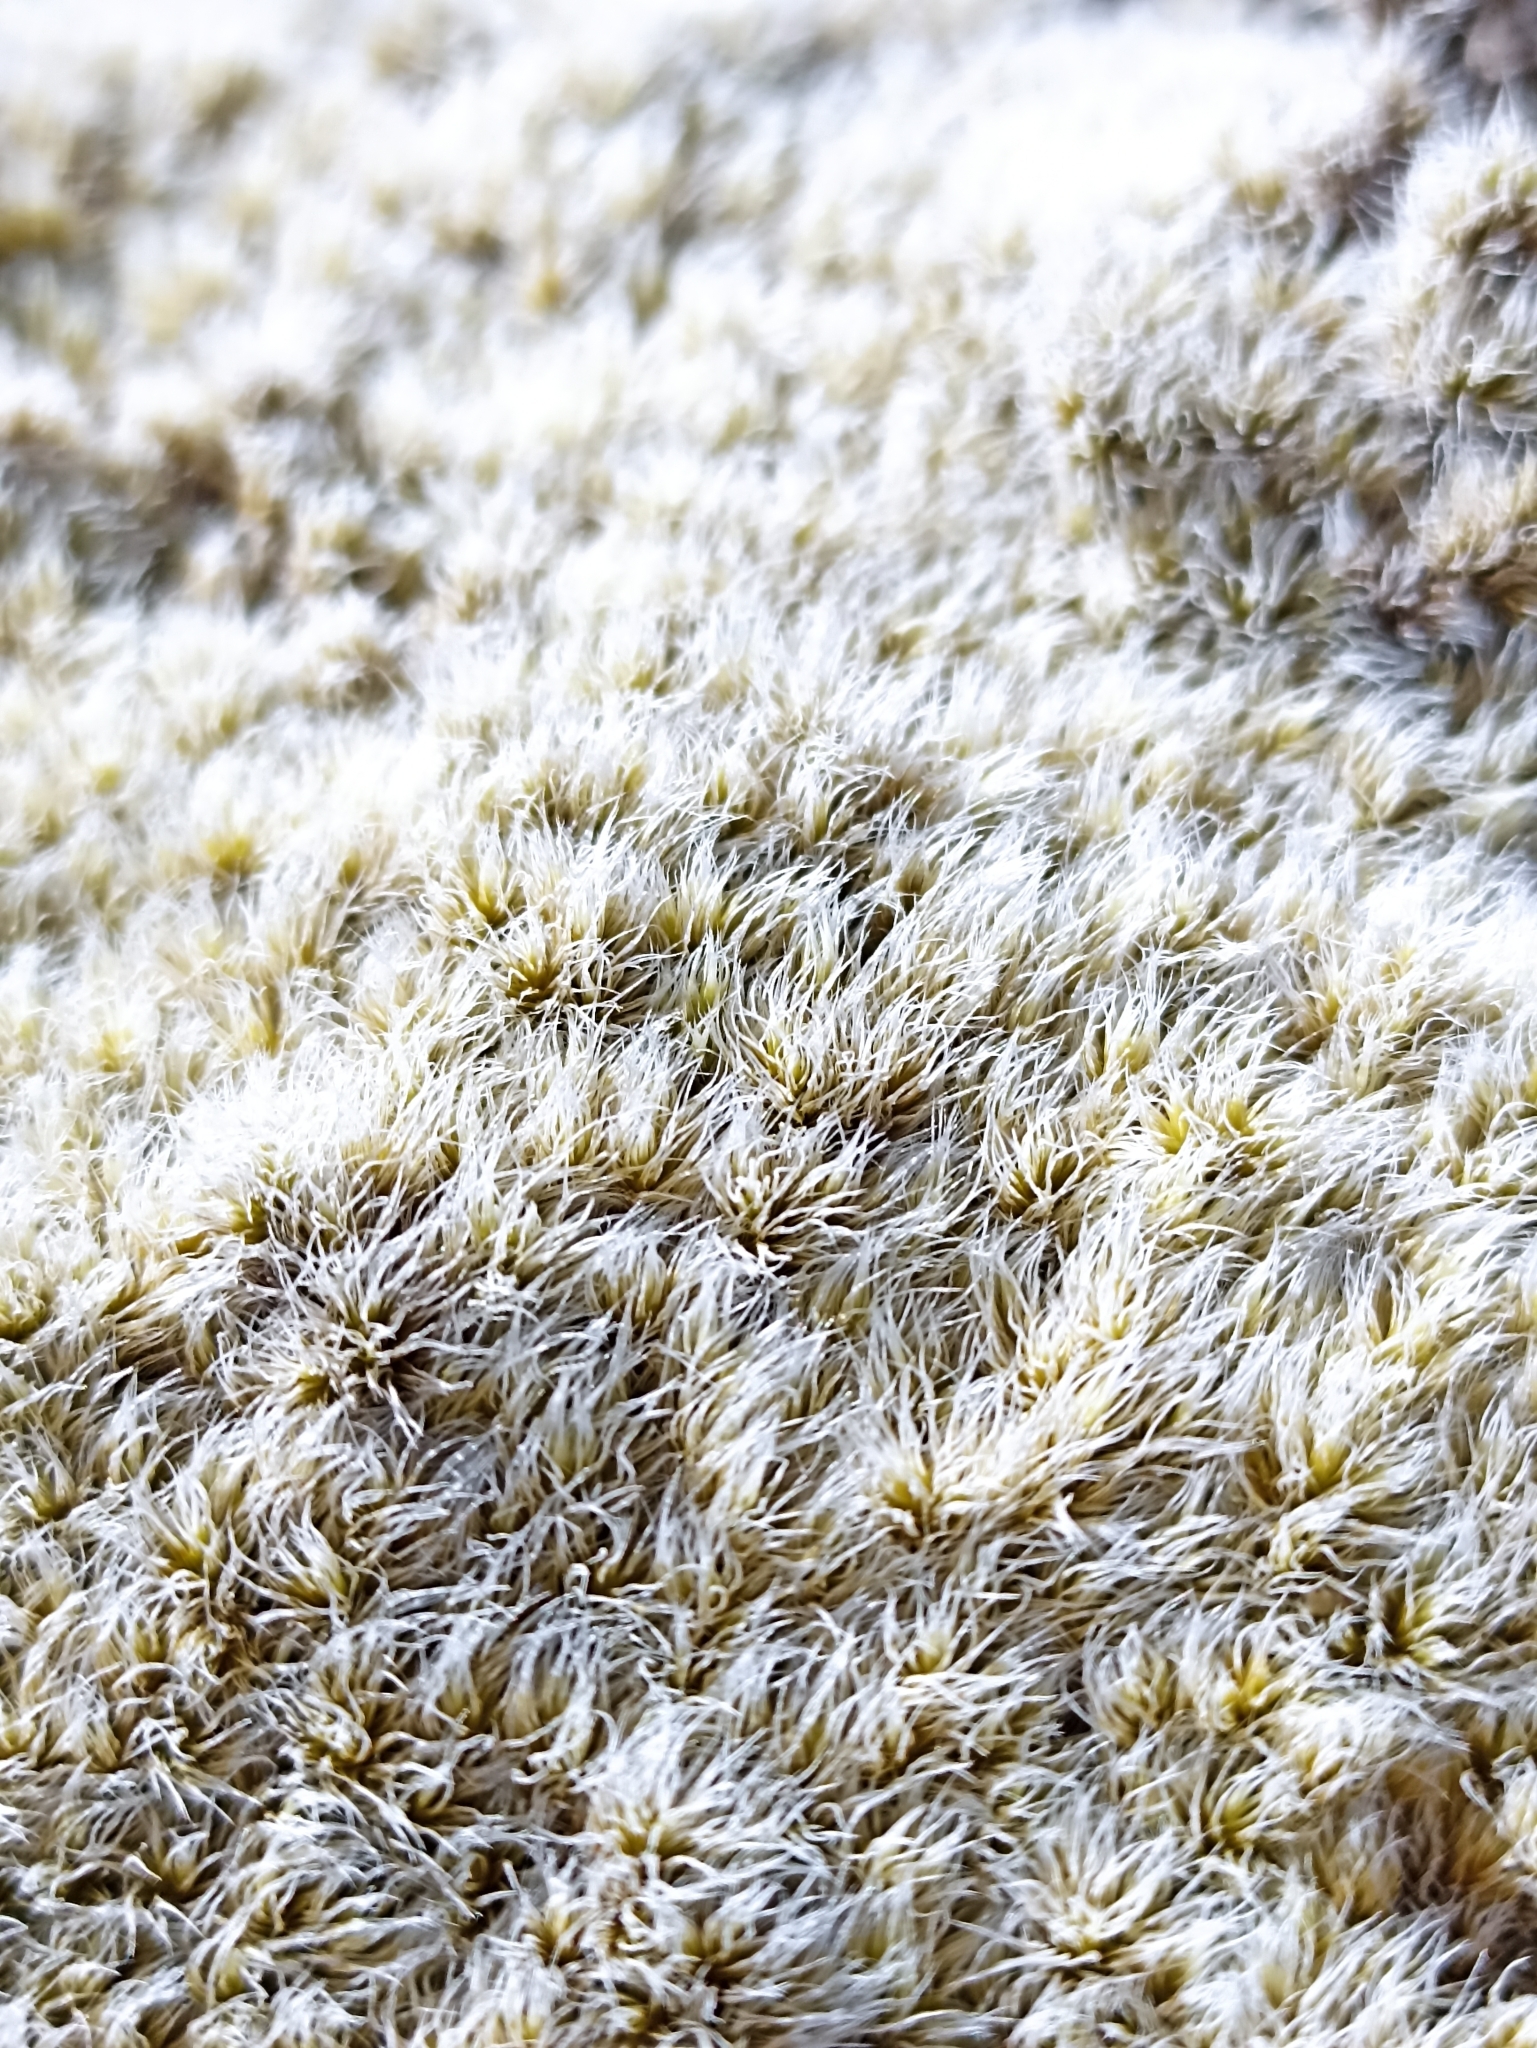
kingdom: Plantae
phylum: Bryophyta
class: Bryopsida
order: Grimmiales
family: Grimmiaceae
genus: Racomitrium
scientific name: Racomitrium lanuginosum
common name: Hoary rock moss
